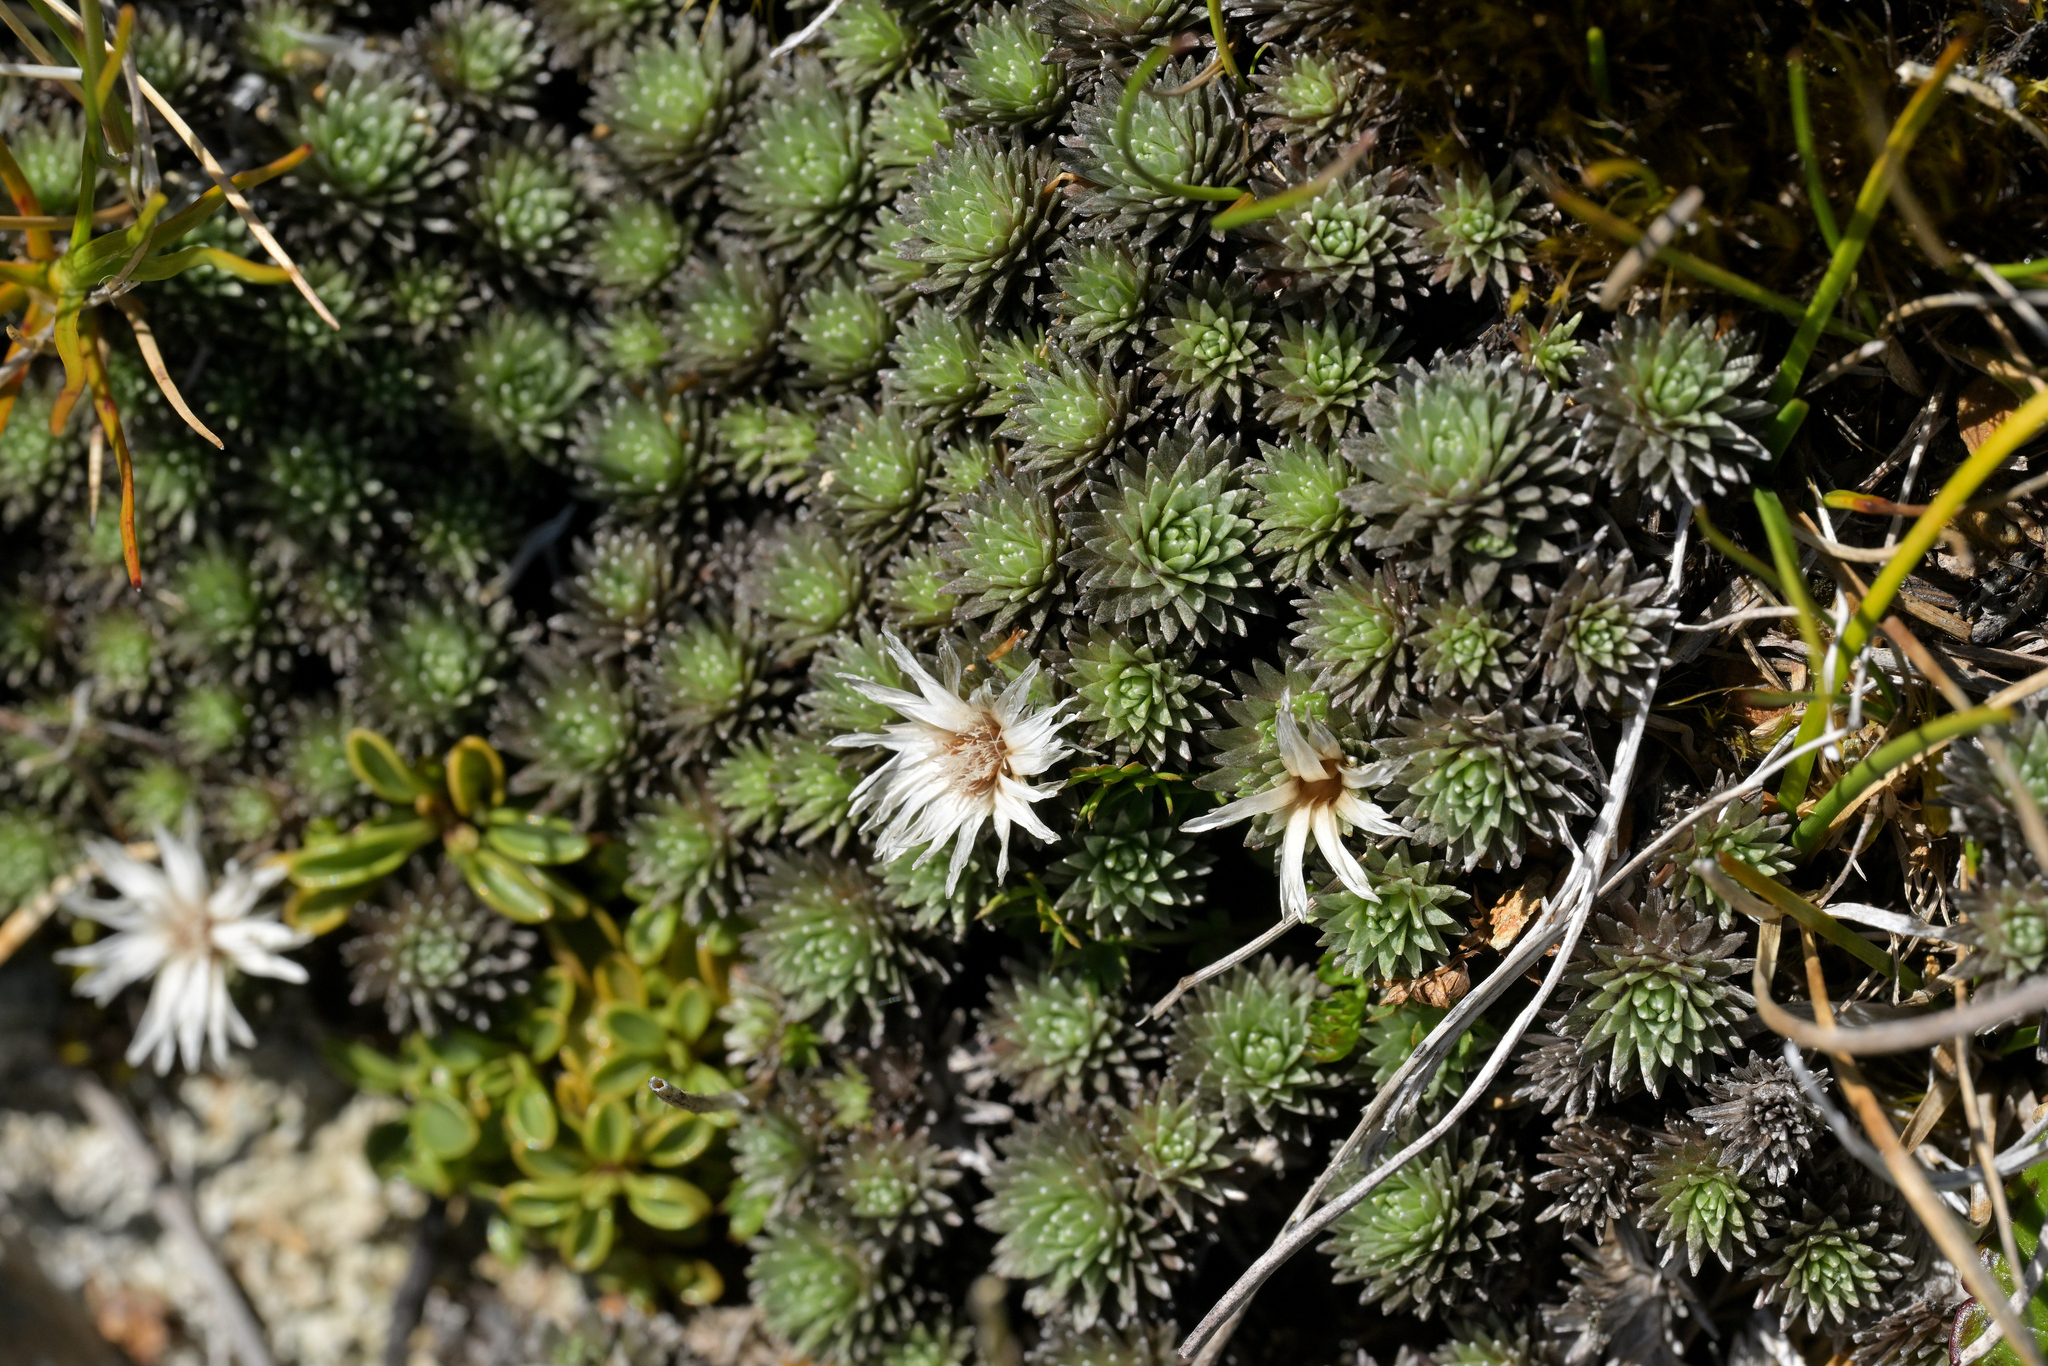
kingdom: Plantae
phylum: Tracheophyta
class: Magnoliopsida
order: Asterales
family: Asteraceae
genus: Raoulia
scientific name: Raoulia grandiflora
